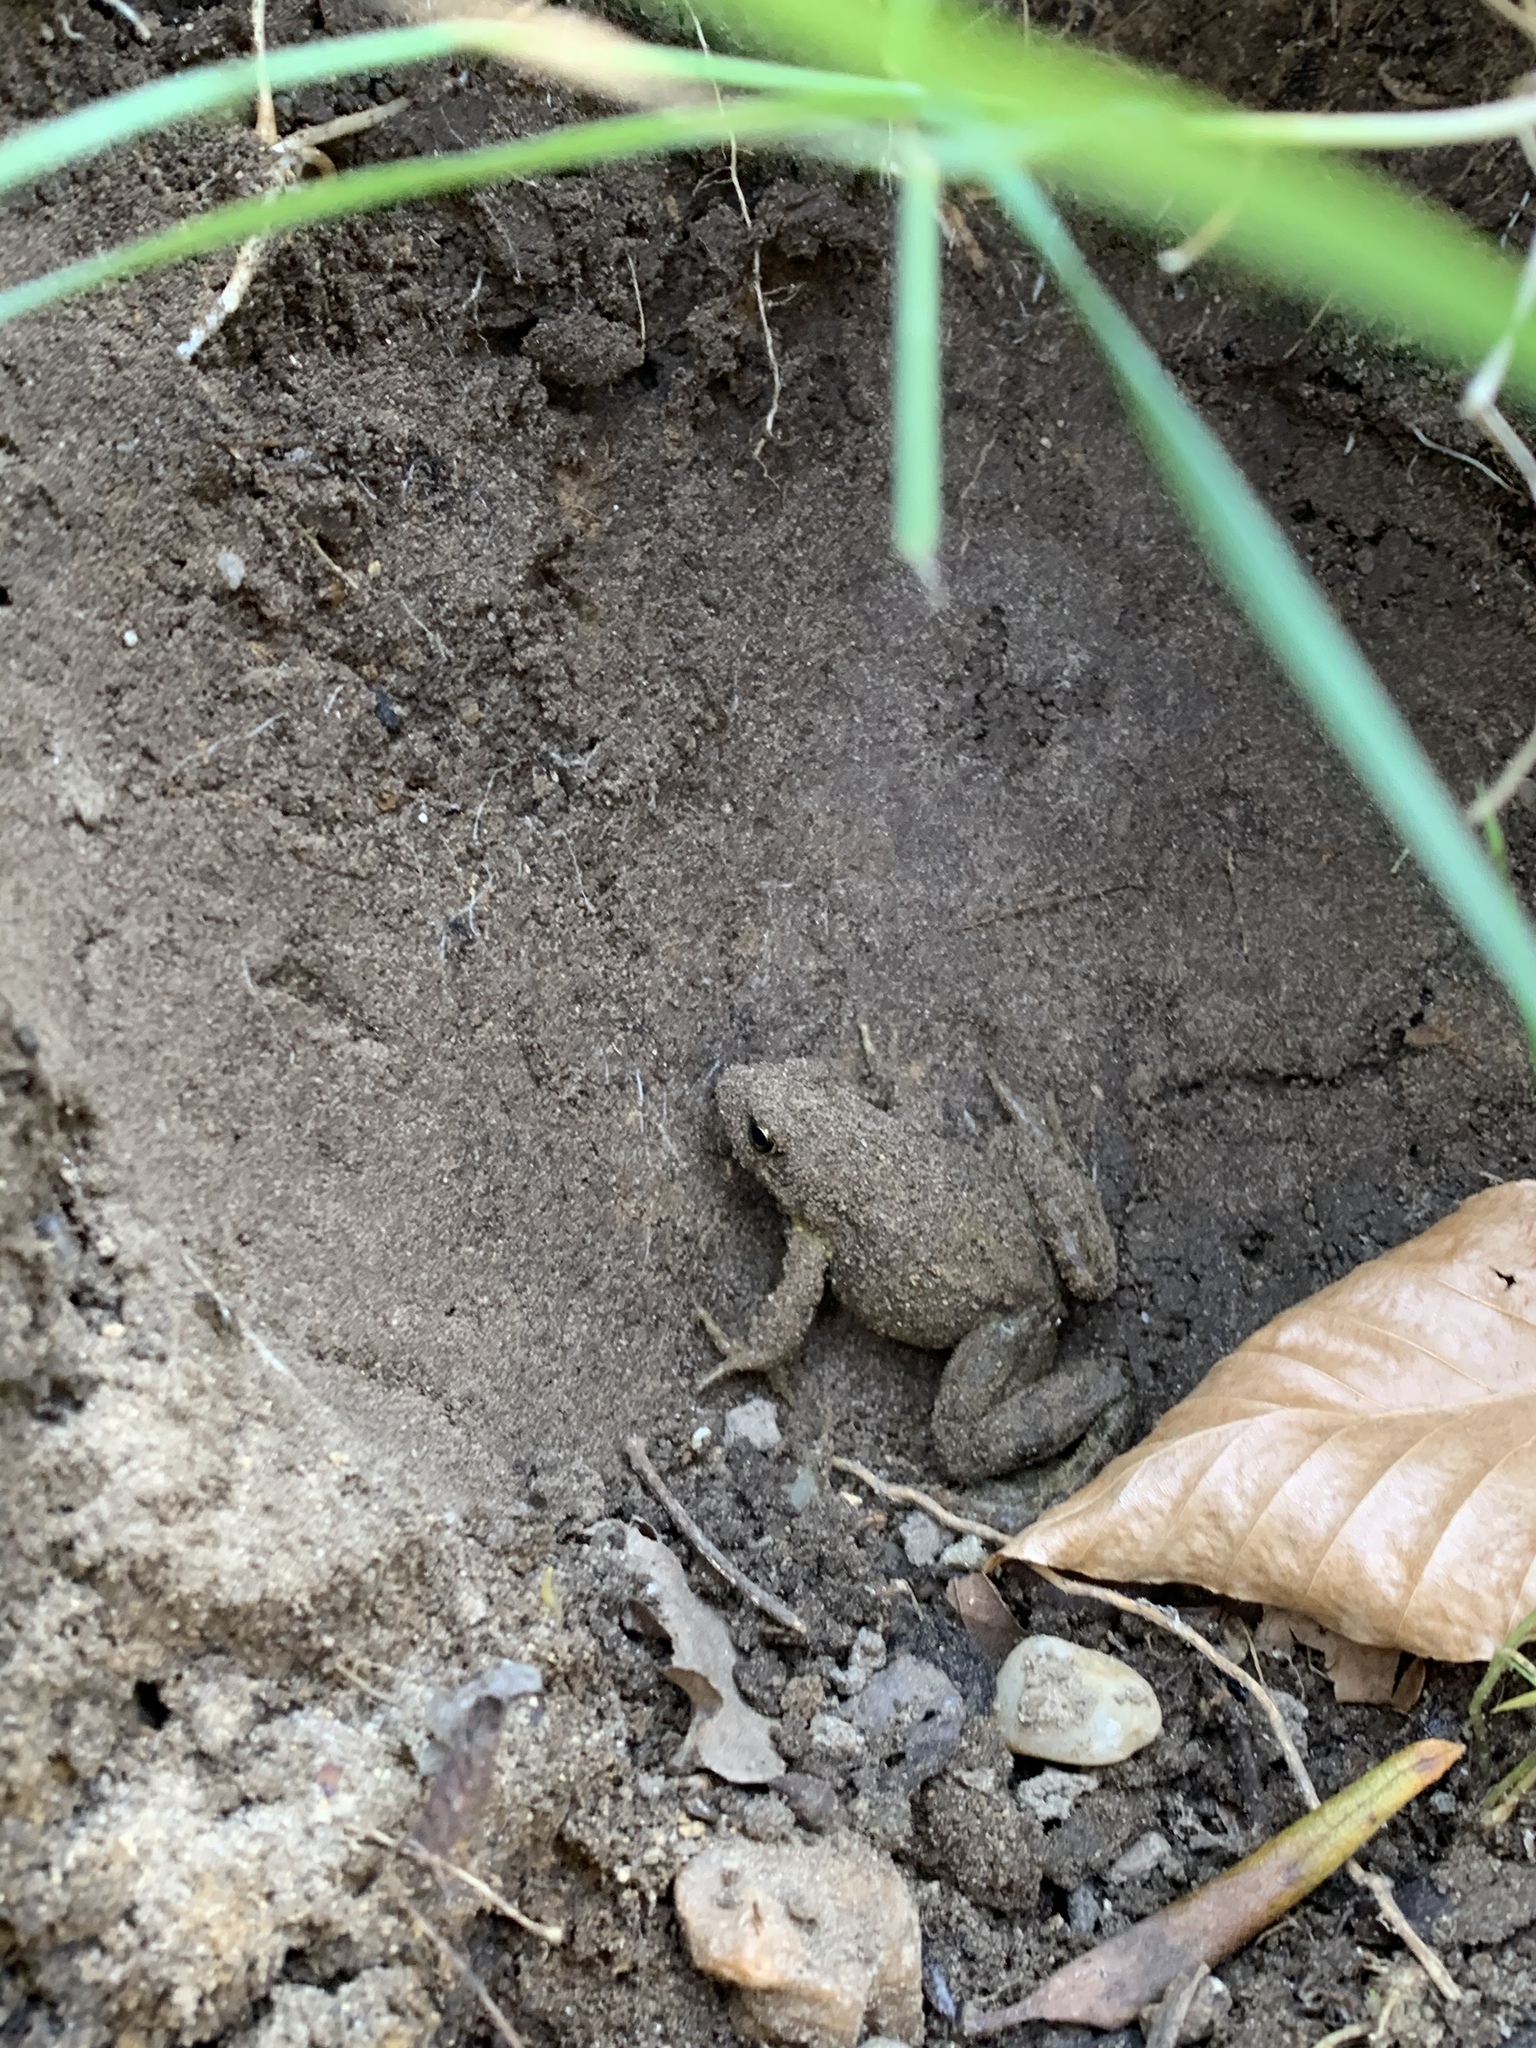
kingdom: Animalia
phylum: Chordata
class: Amphibia
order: Anura
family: Ranidae
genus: Rana
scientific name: Rana temporaria
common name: Common frog
